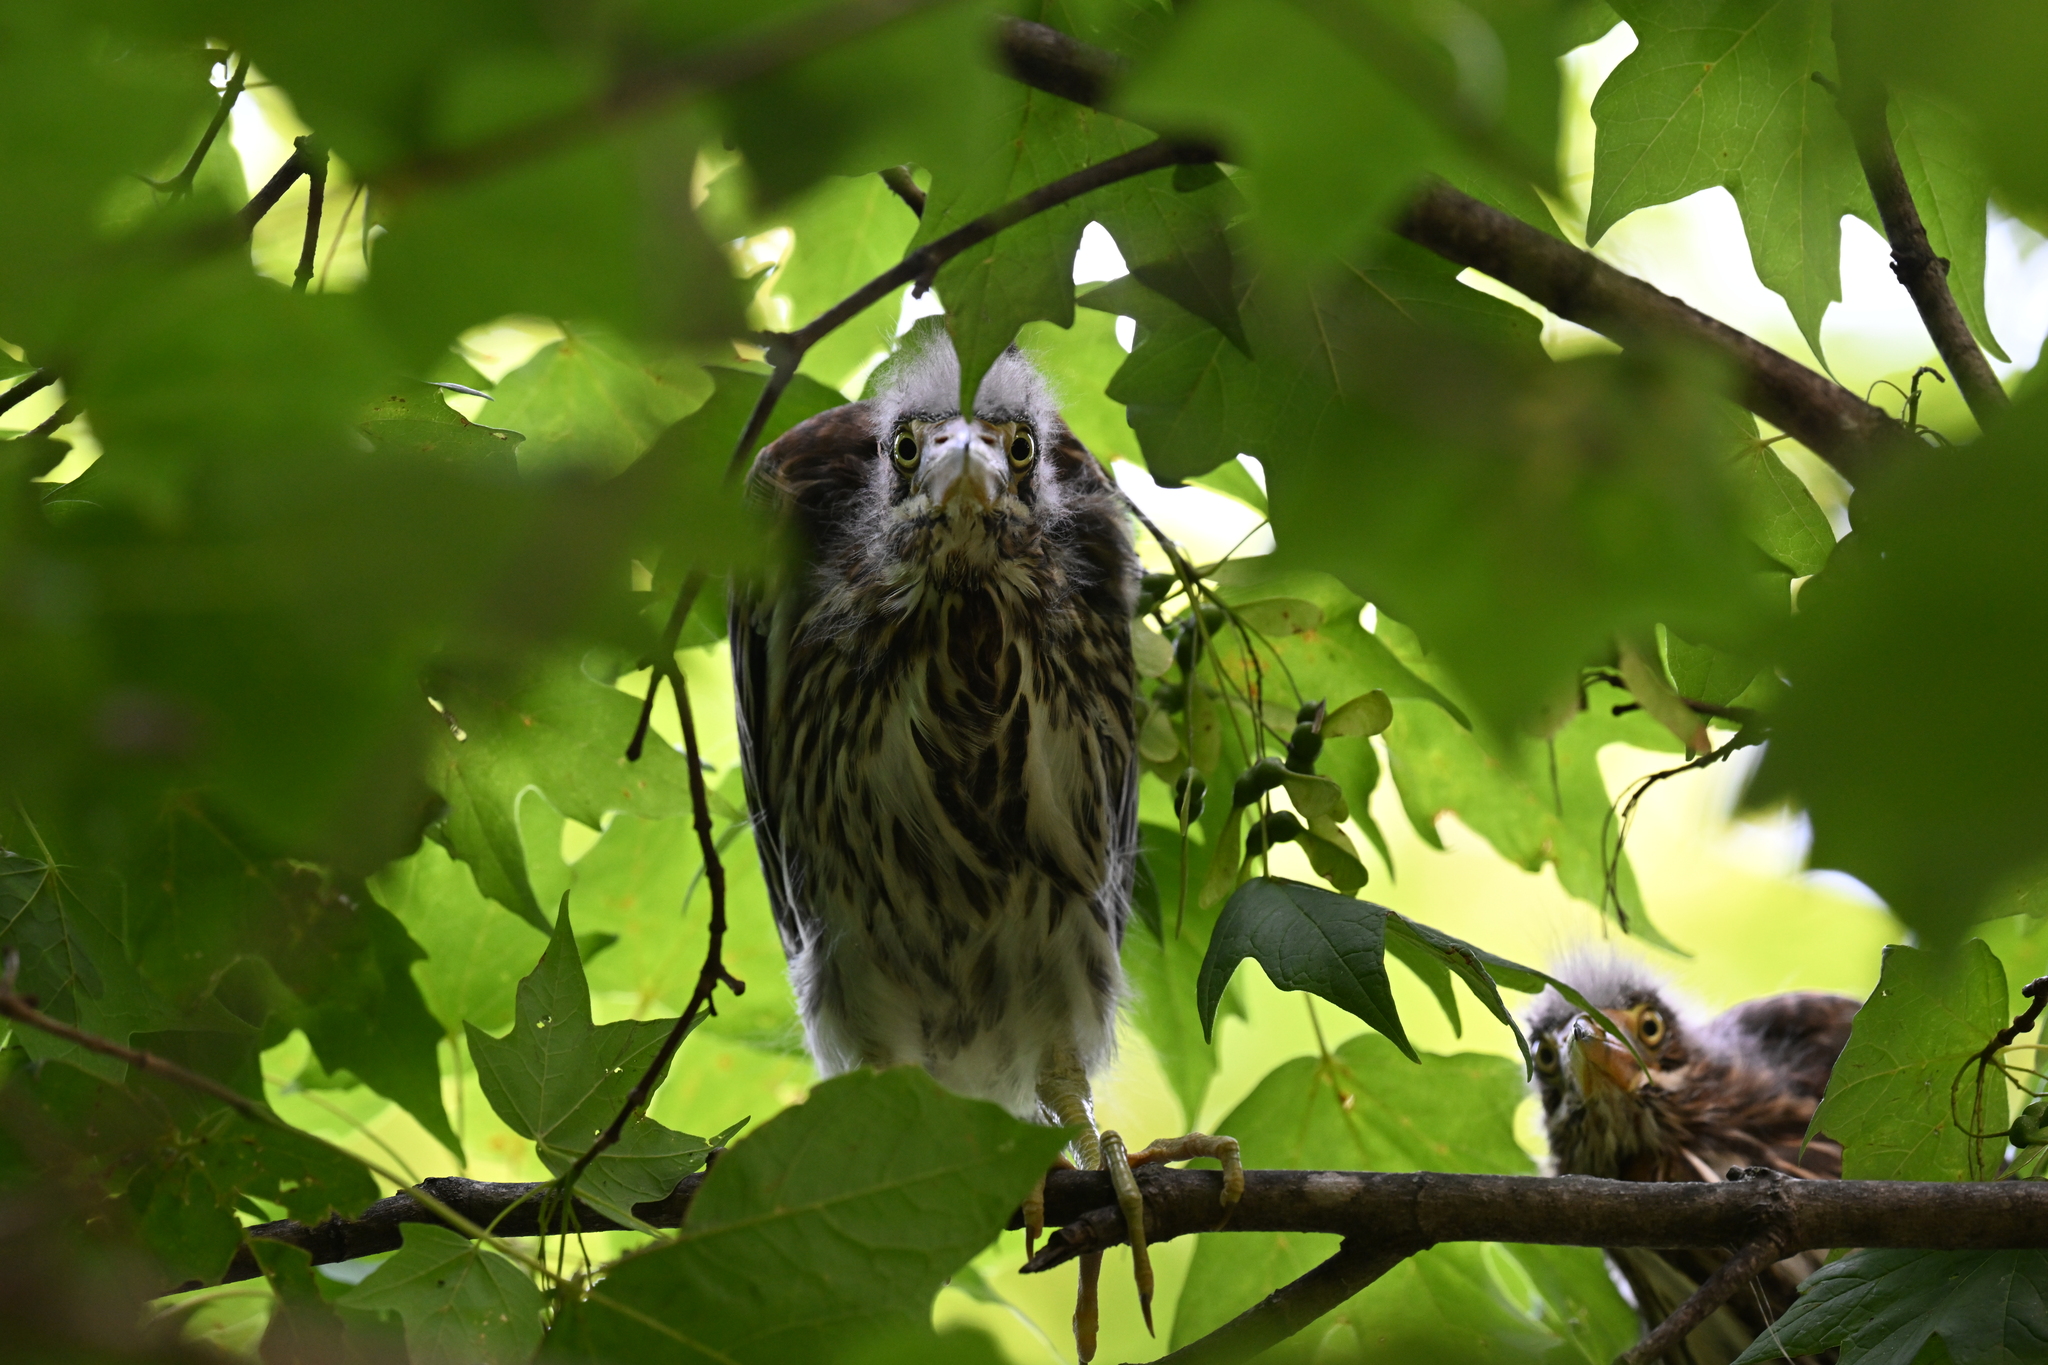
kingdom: Animalia
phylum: Chordata
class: Aves
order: Pelecaniformes
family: Ardeidae
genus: Butorides
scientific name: Butorides virescens
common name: Green heron
